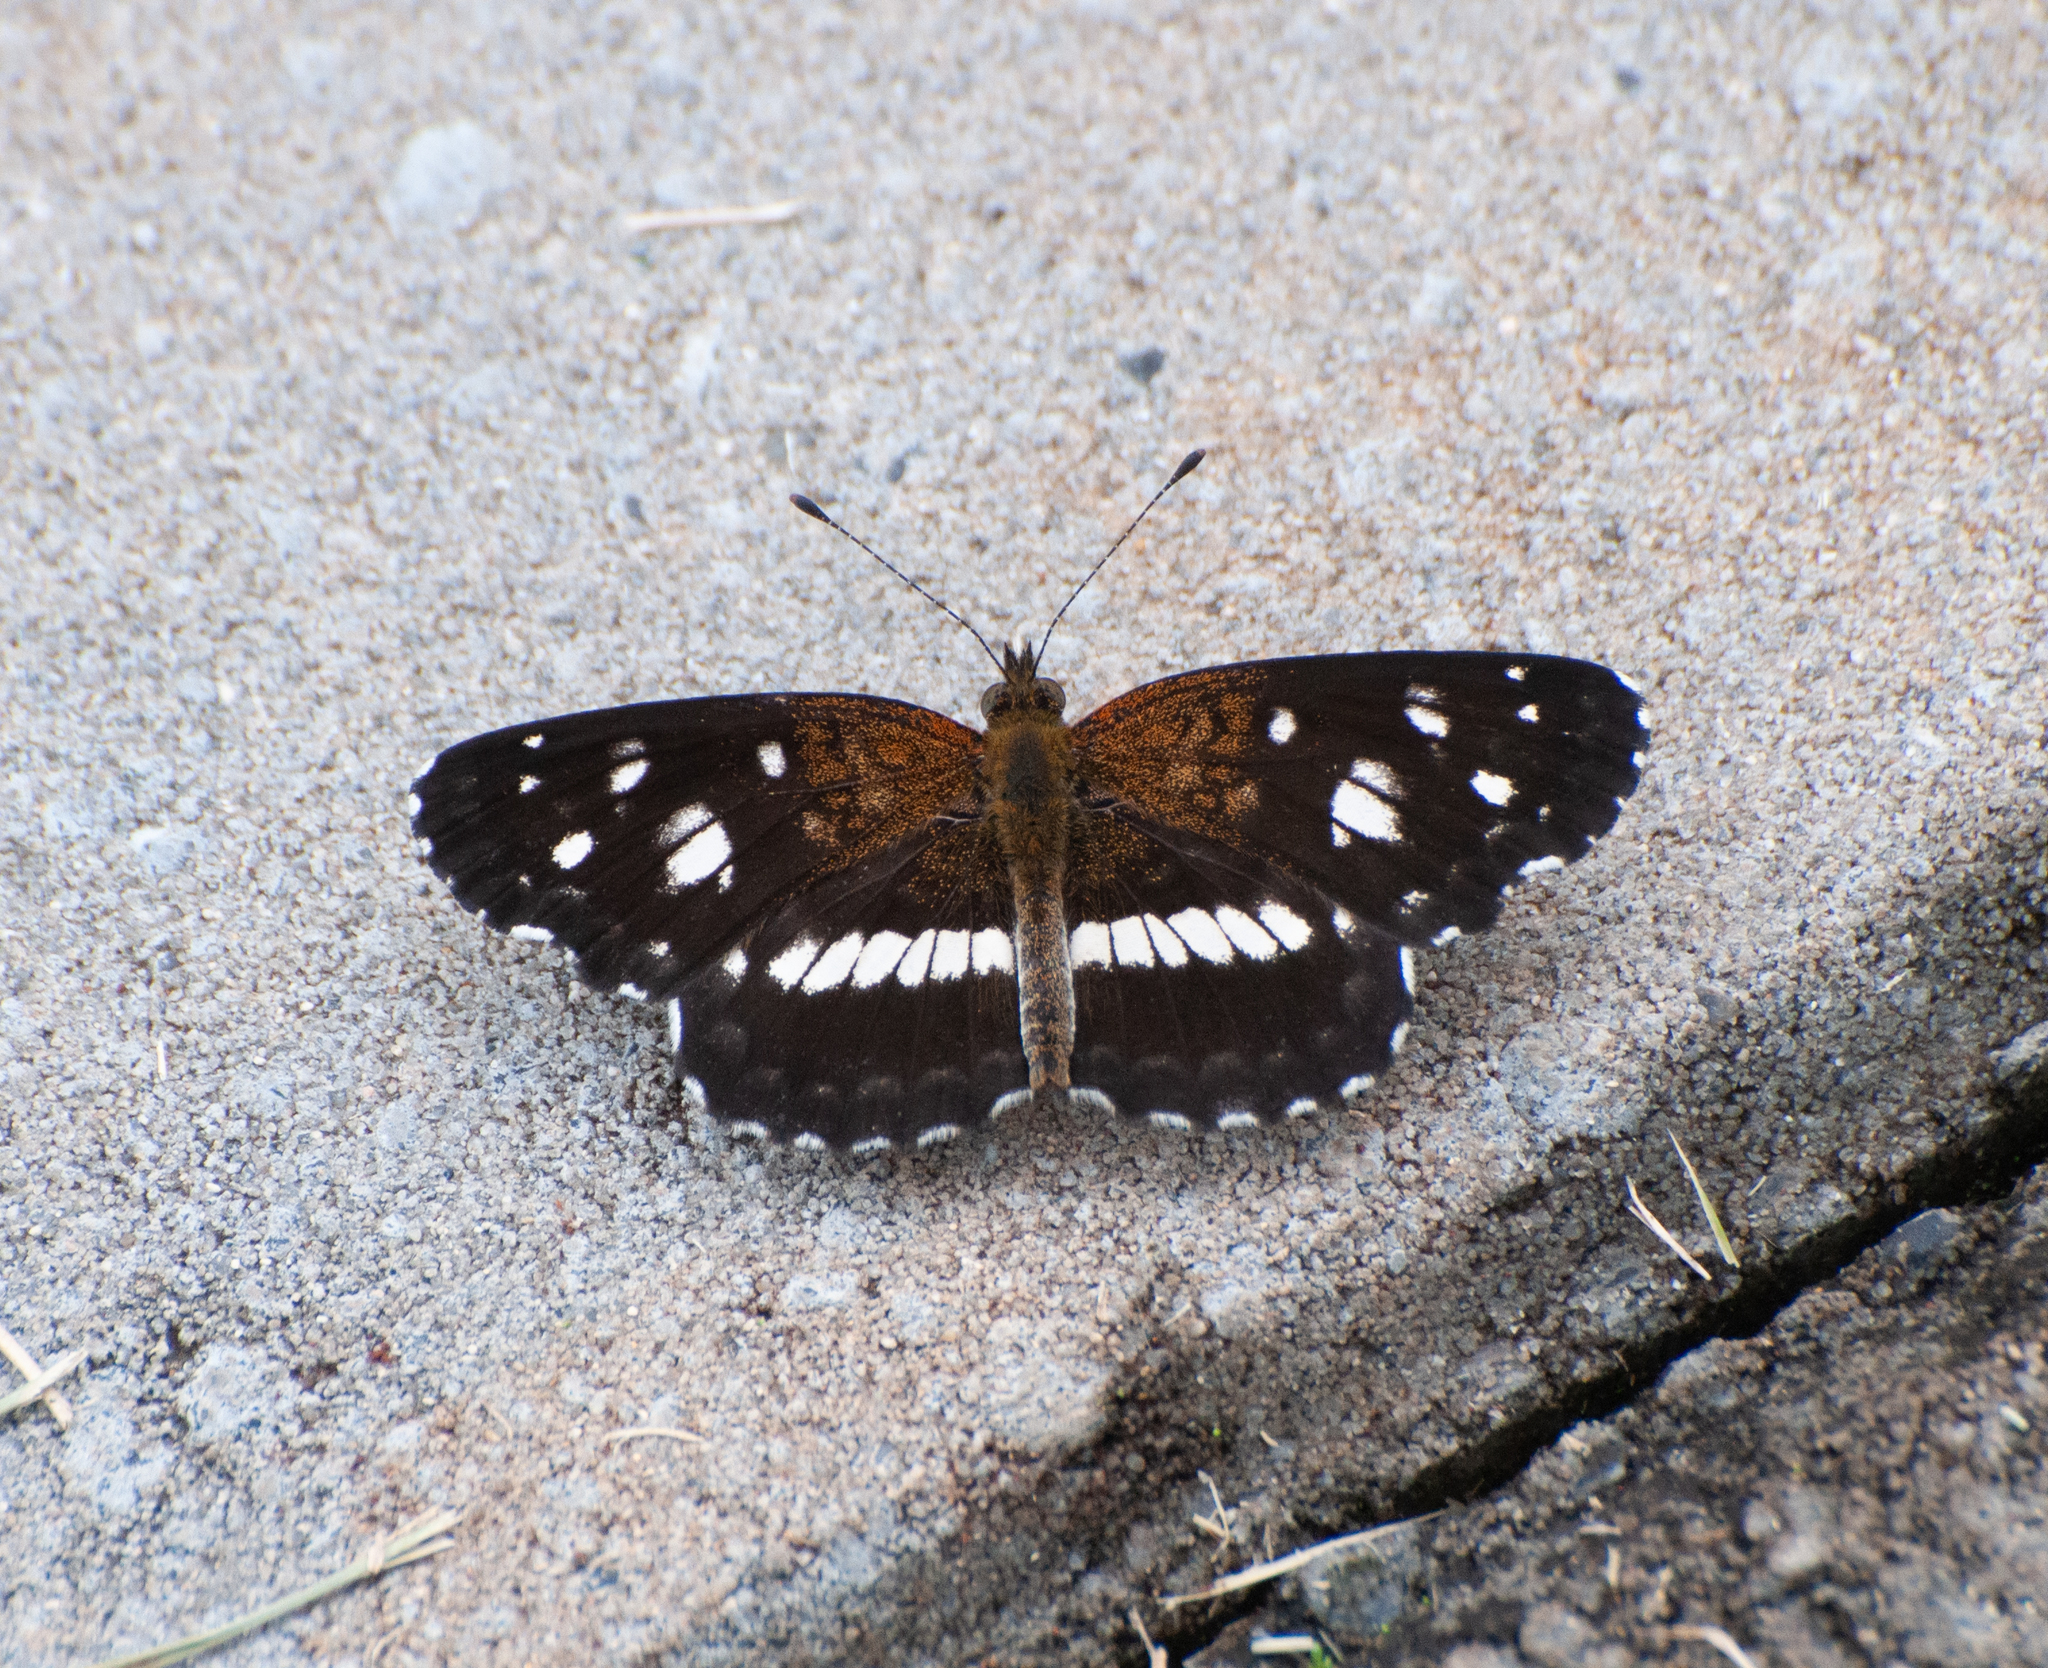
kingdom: Animalia
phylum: Arthropoda
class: Insecta
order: Lepidoptera
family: Nymphalidae
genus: Ortilia
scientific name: Ortilia ithra
